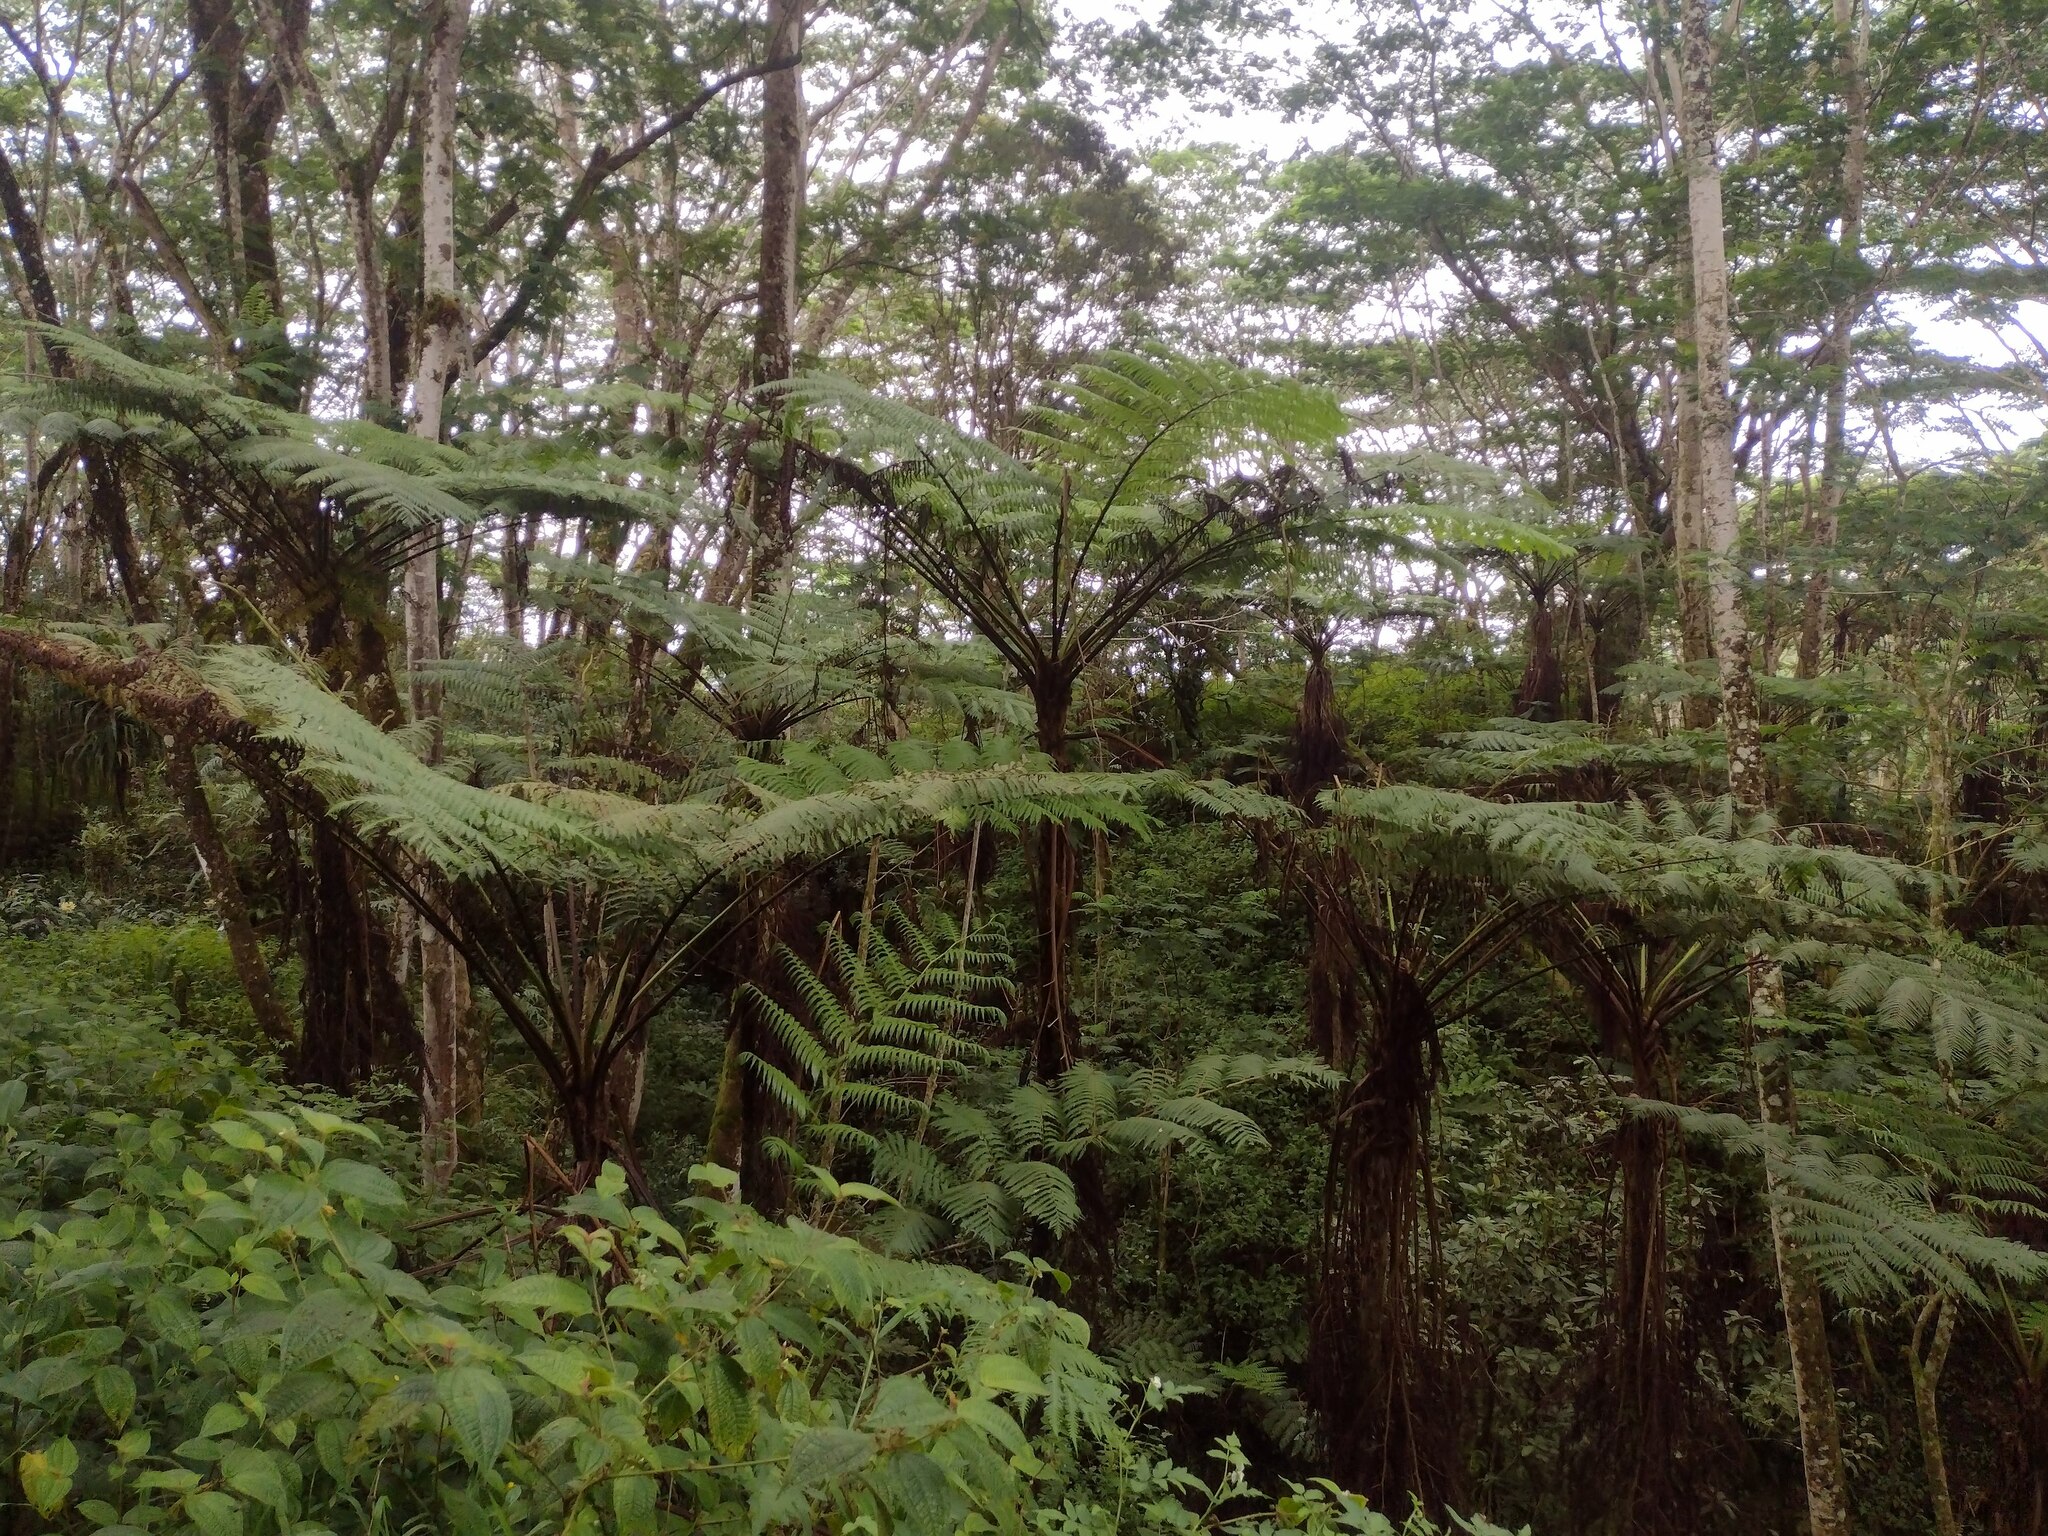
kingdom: Plantae
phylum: Tracheophyta
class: Polypodiopsida
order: Cyatheales
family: Cyatheaceae
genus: Sphaeropteris
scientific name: Sphaeropteris cooperi
